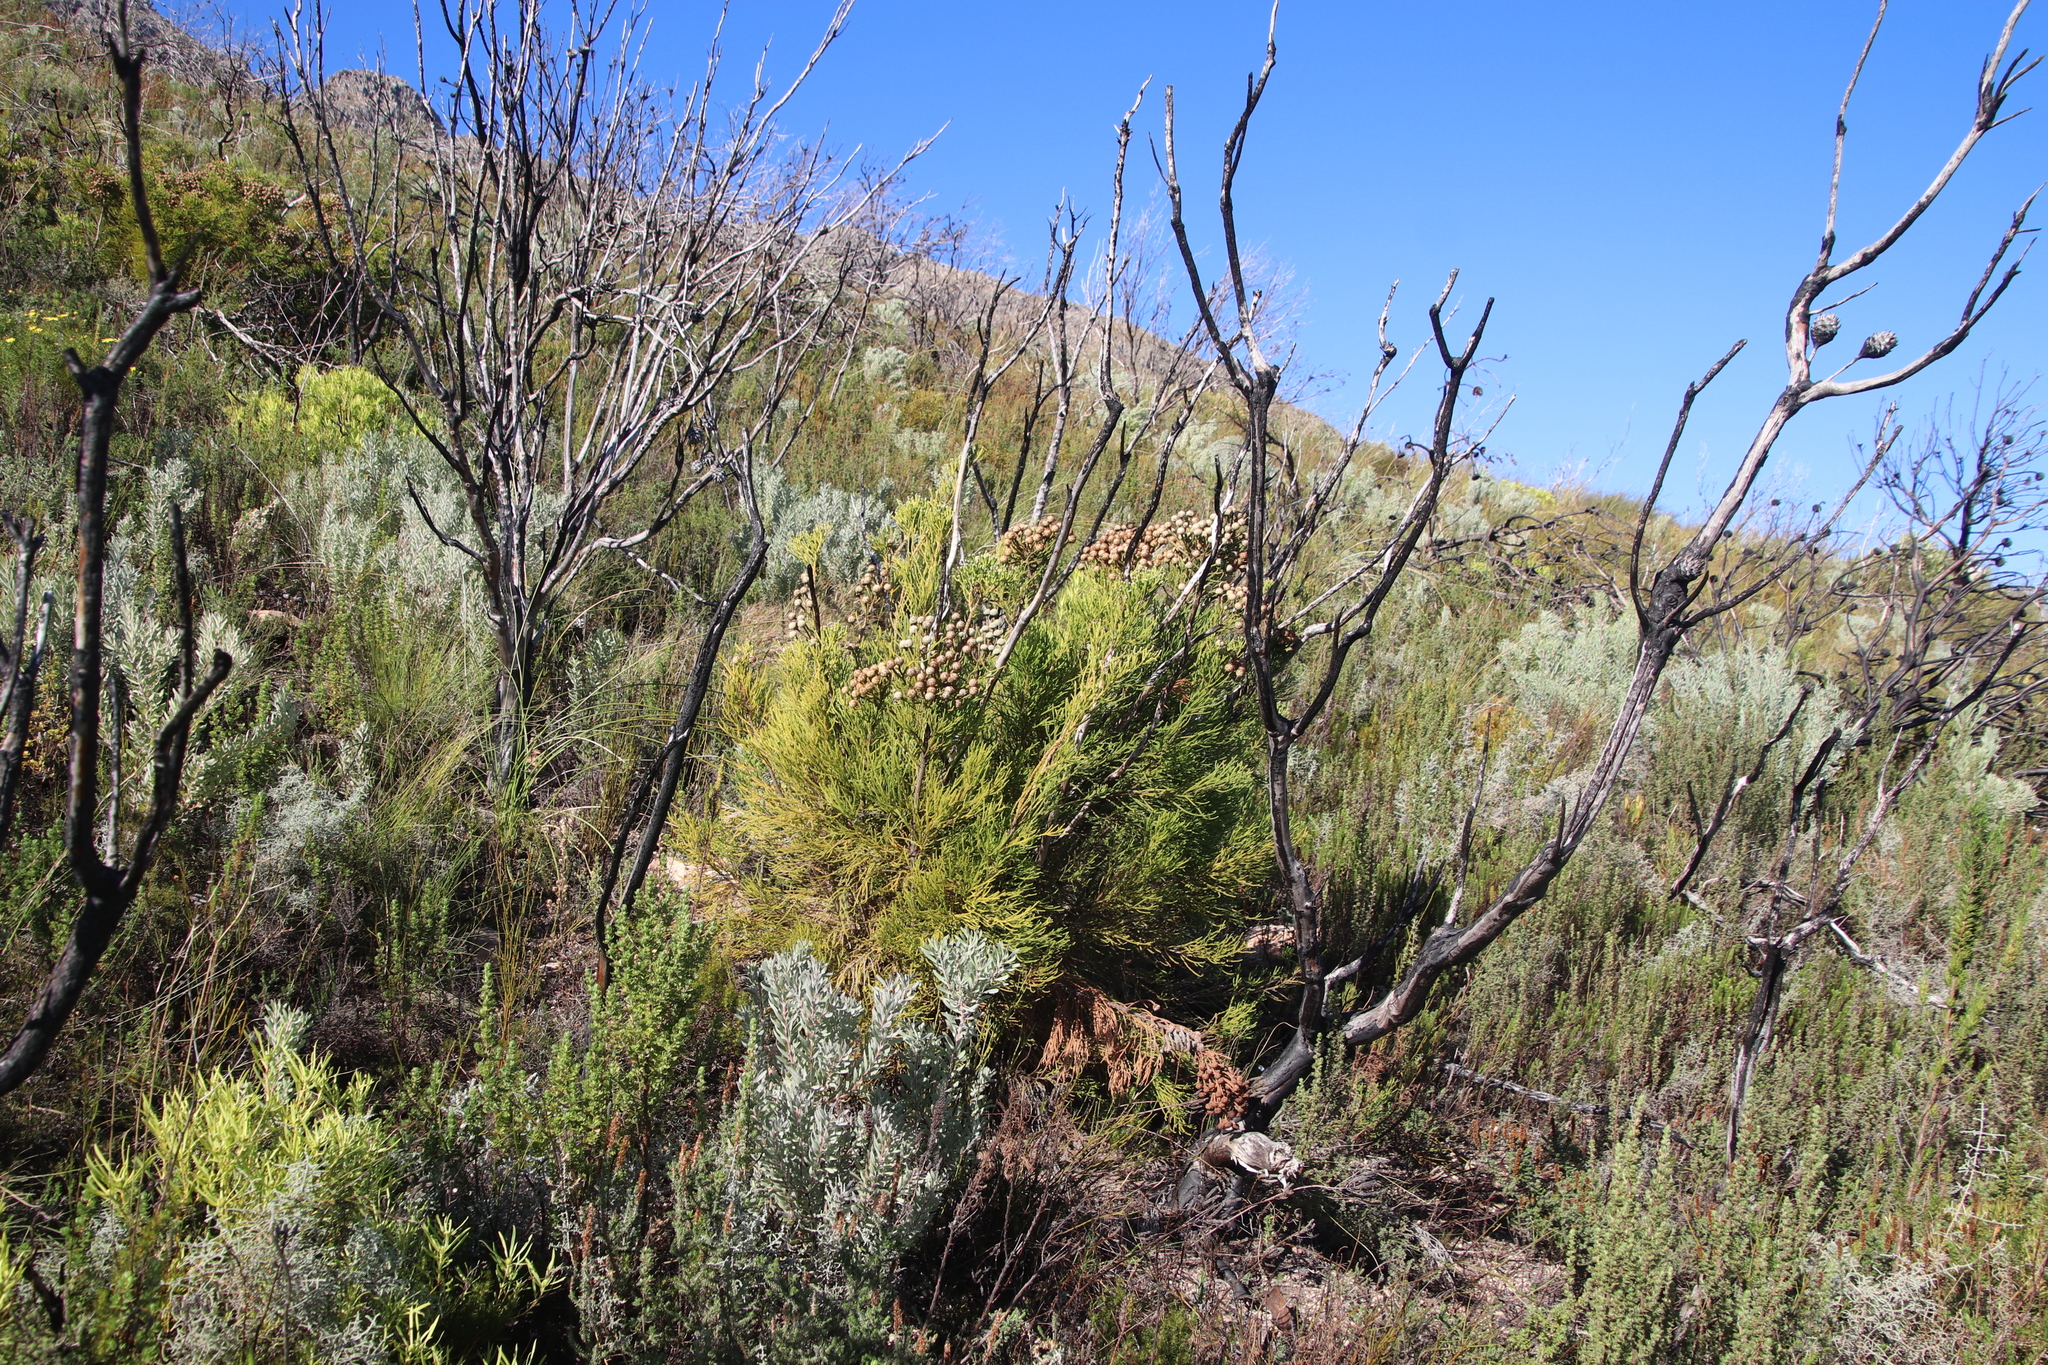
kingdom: Plantae
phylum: Tracheophyta
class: Magnoliopsida
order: Bruniales
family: Bruniaceae
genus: Brunia
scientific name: Brunia noduliflora
